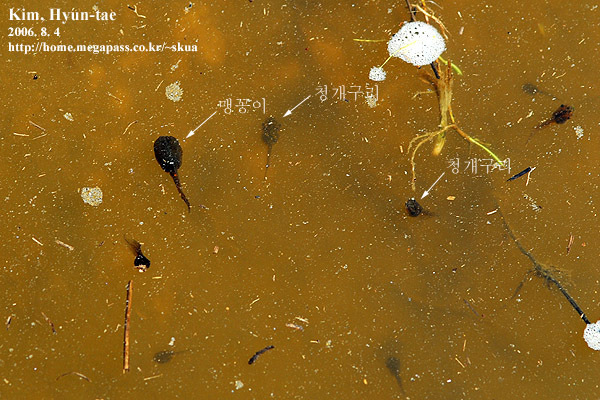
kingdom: Animalia
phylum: Chordata
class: Amphibia
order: Anura
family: Microhylidae
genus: Kaloula
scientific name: Kaloula borealis
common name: Boreal digging frog
